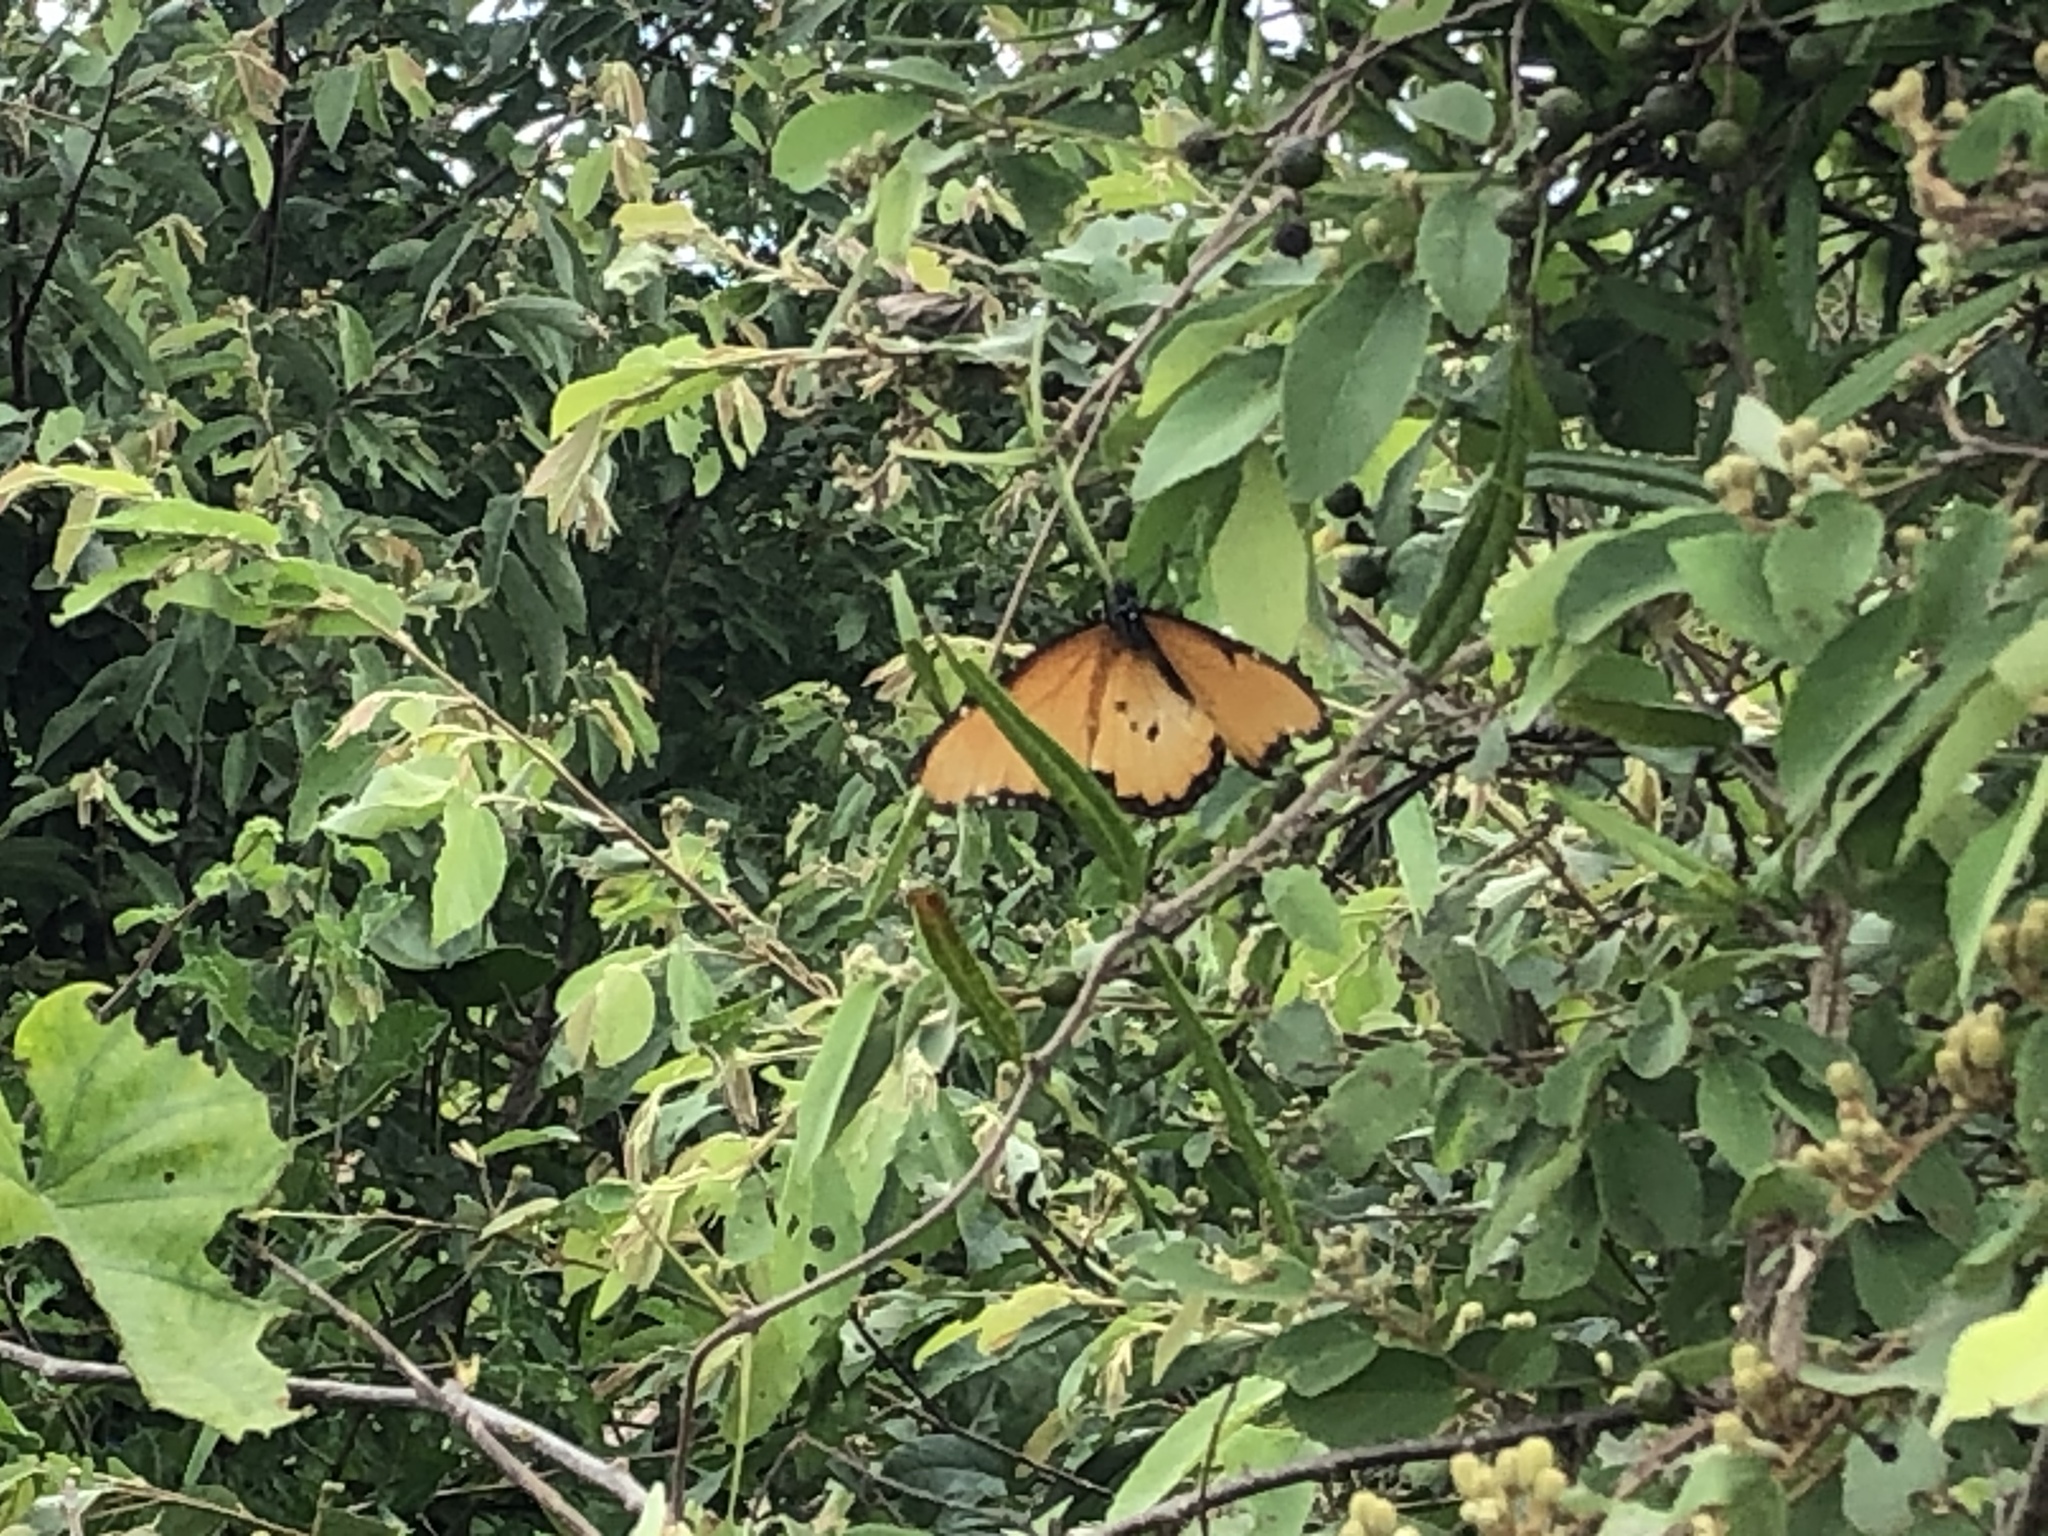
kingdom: Animalia
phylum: Arthropoda
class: Insecta
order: Lepidoptera
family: Nymphalidae
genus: Danaus
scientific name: Danaus chrysippus
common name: Plain tiger
